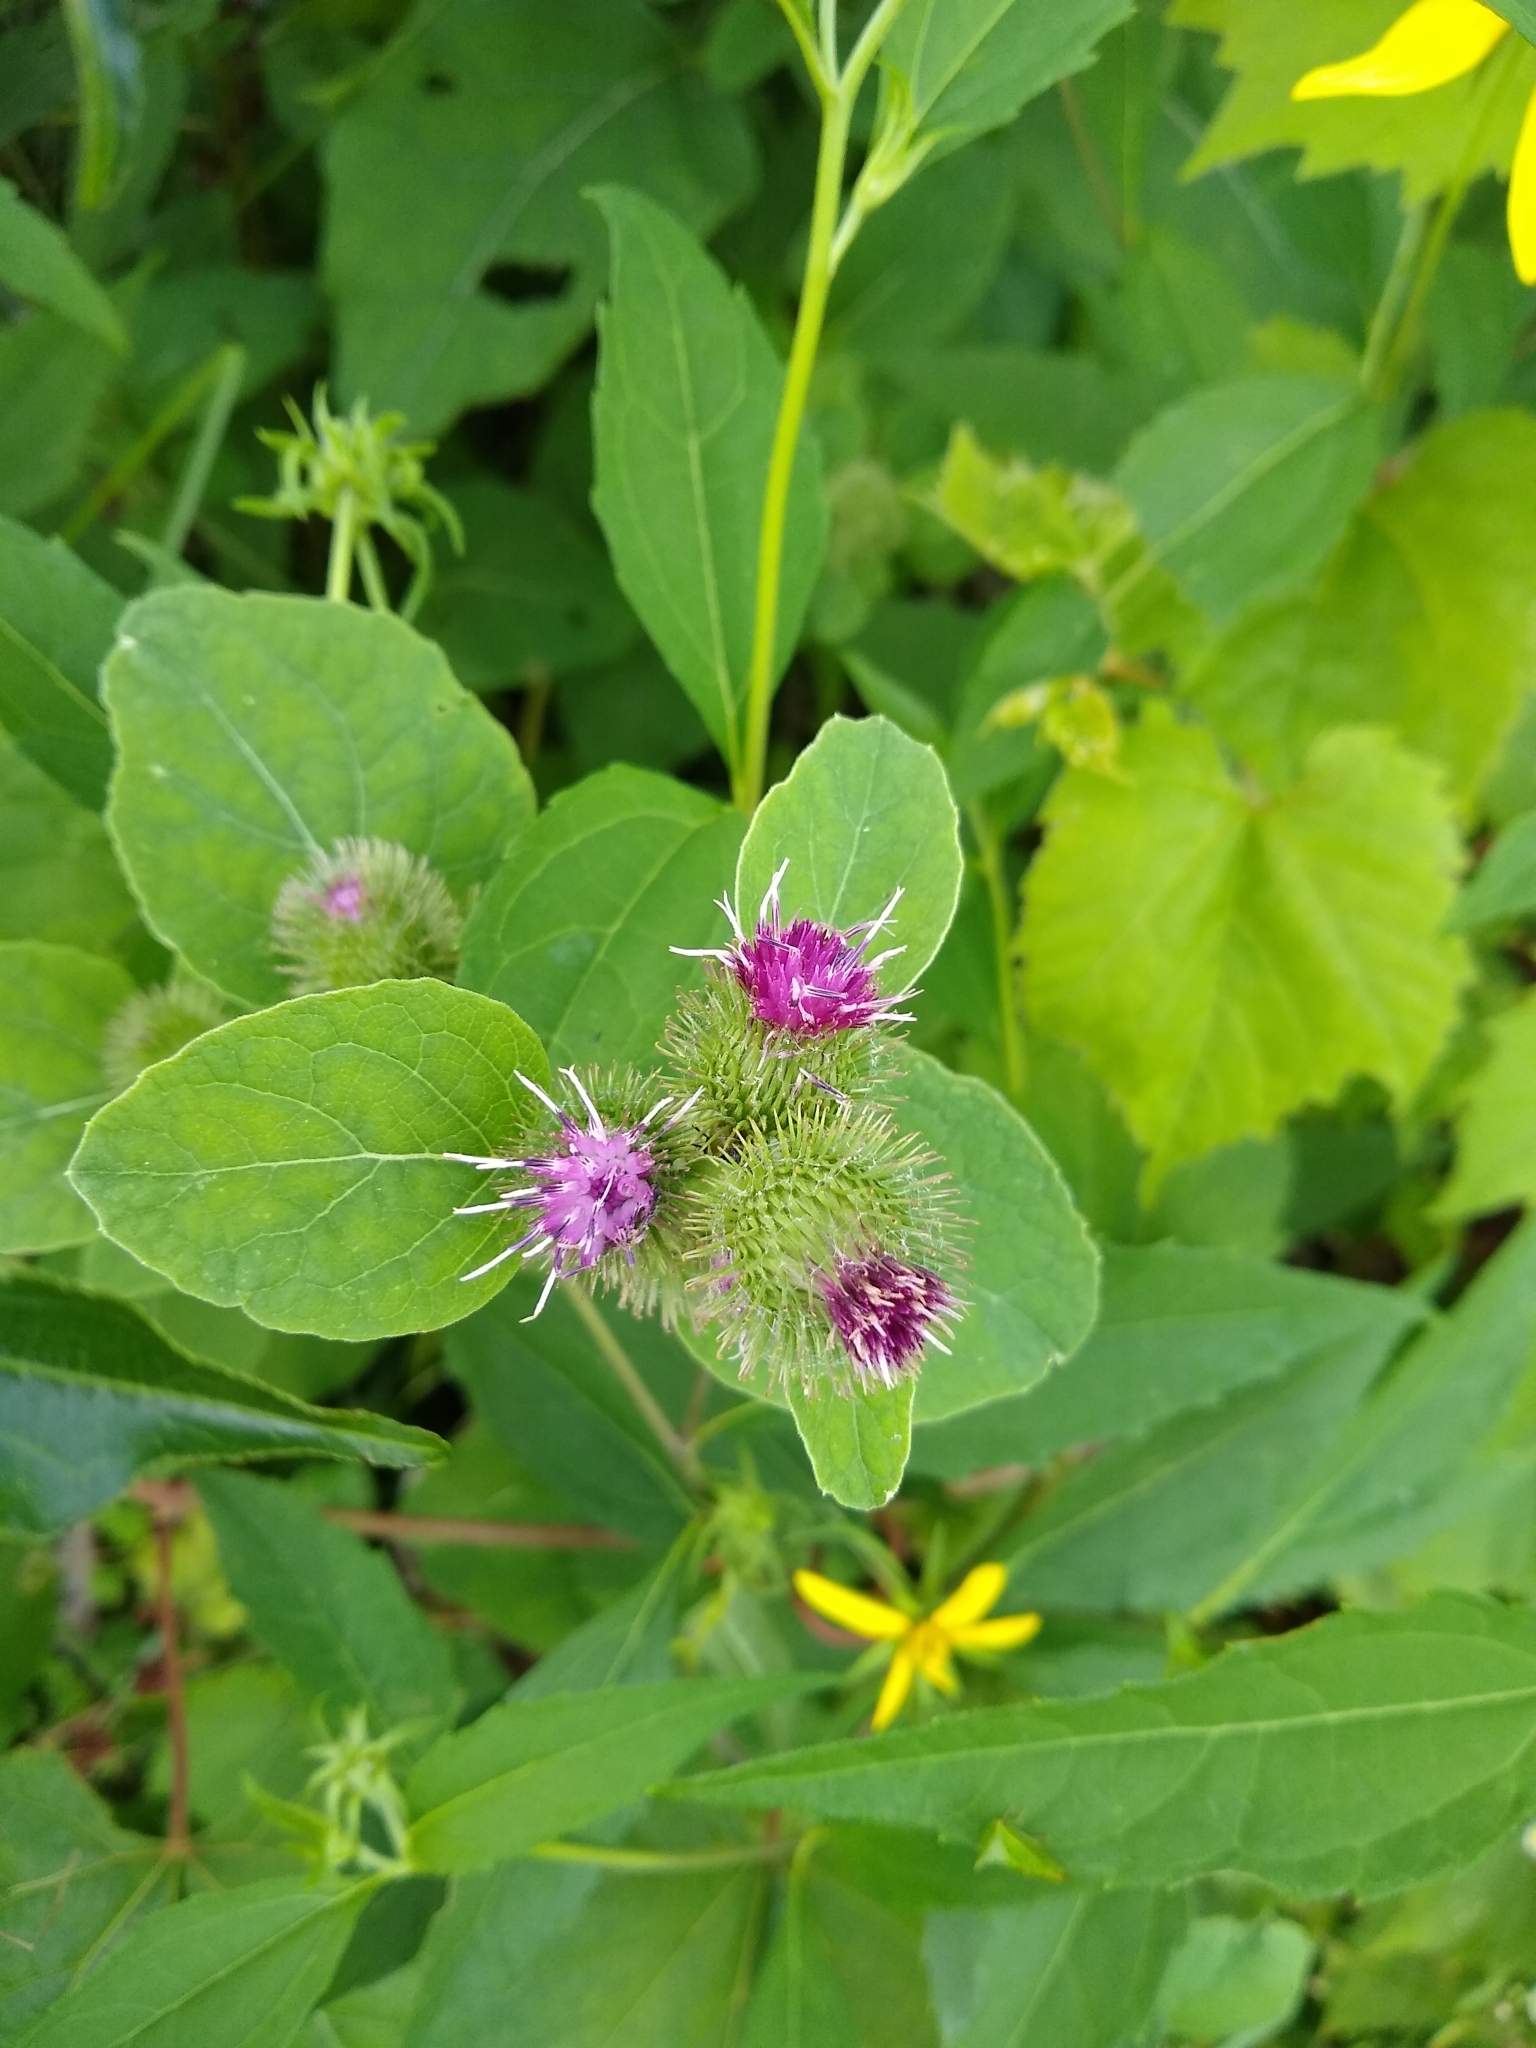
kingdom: Plantae
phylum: Tracheophyta
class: Magnoliopsida
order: Asterales
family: Asteraceae
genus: Arctium
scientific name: Arctium minus
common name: Lesser burdock
